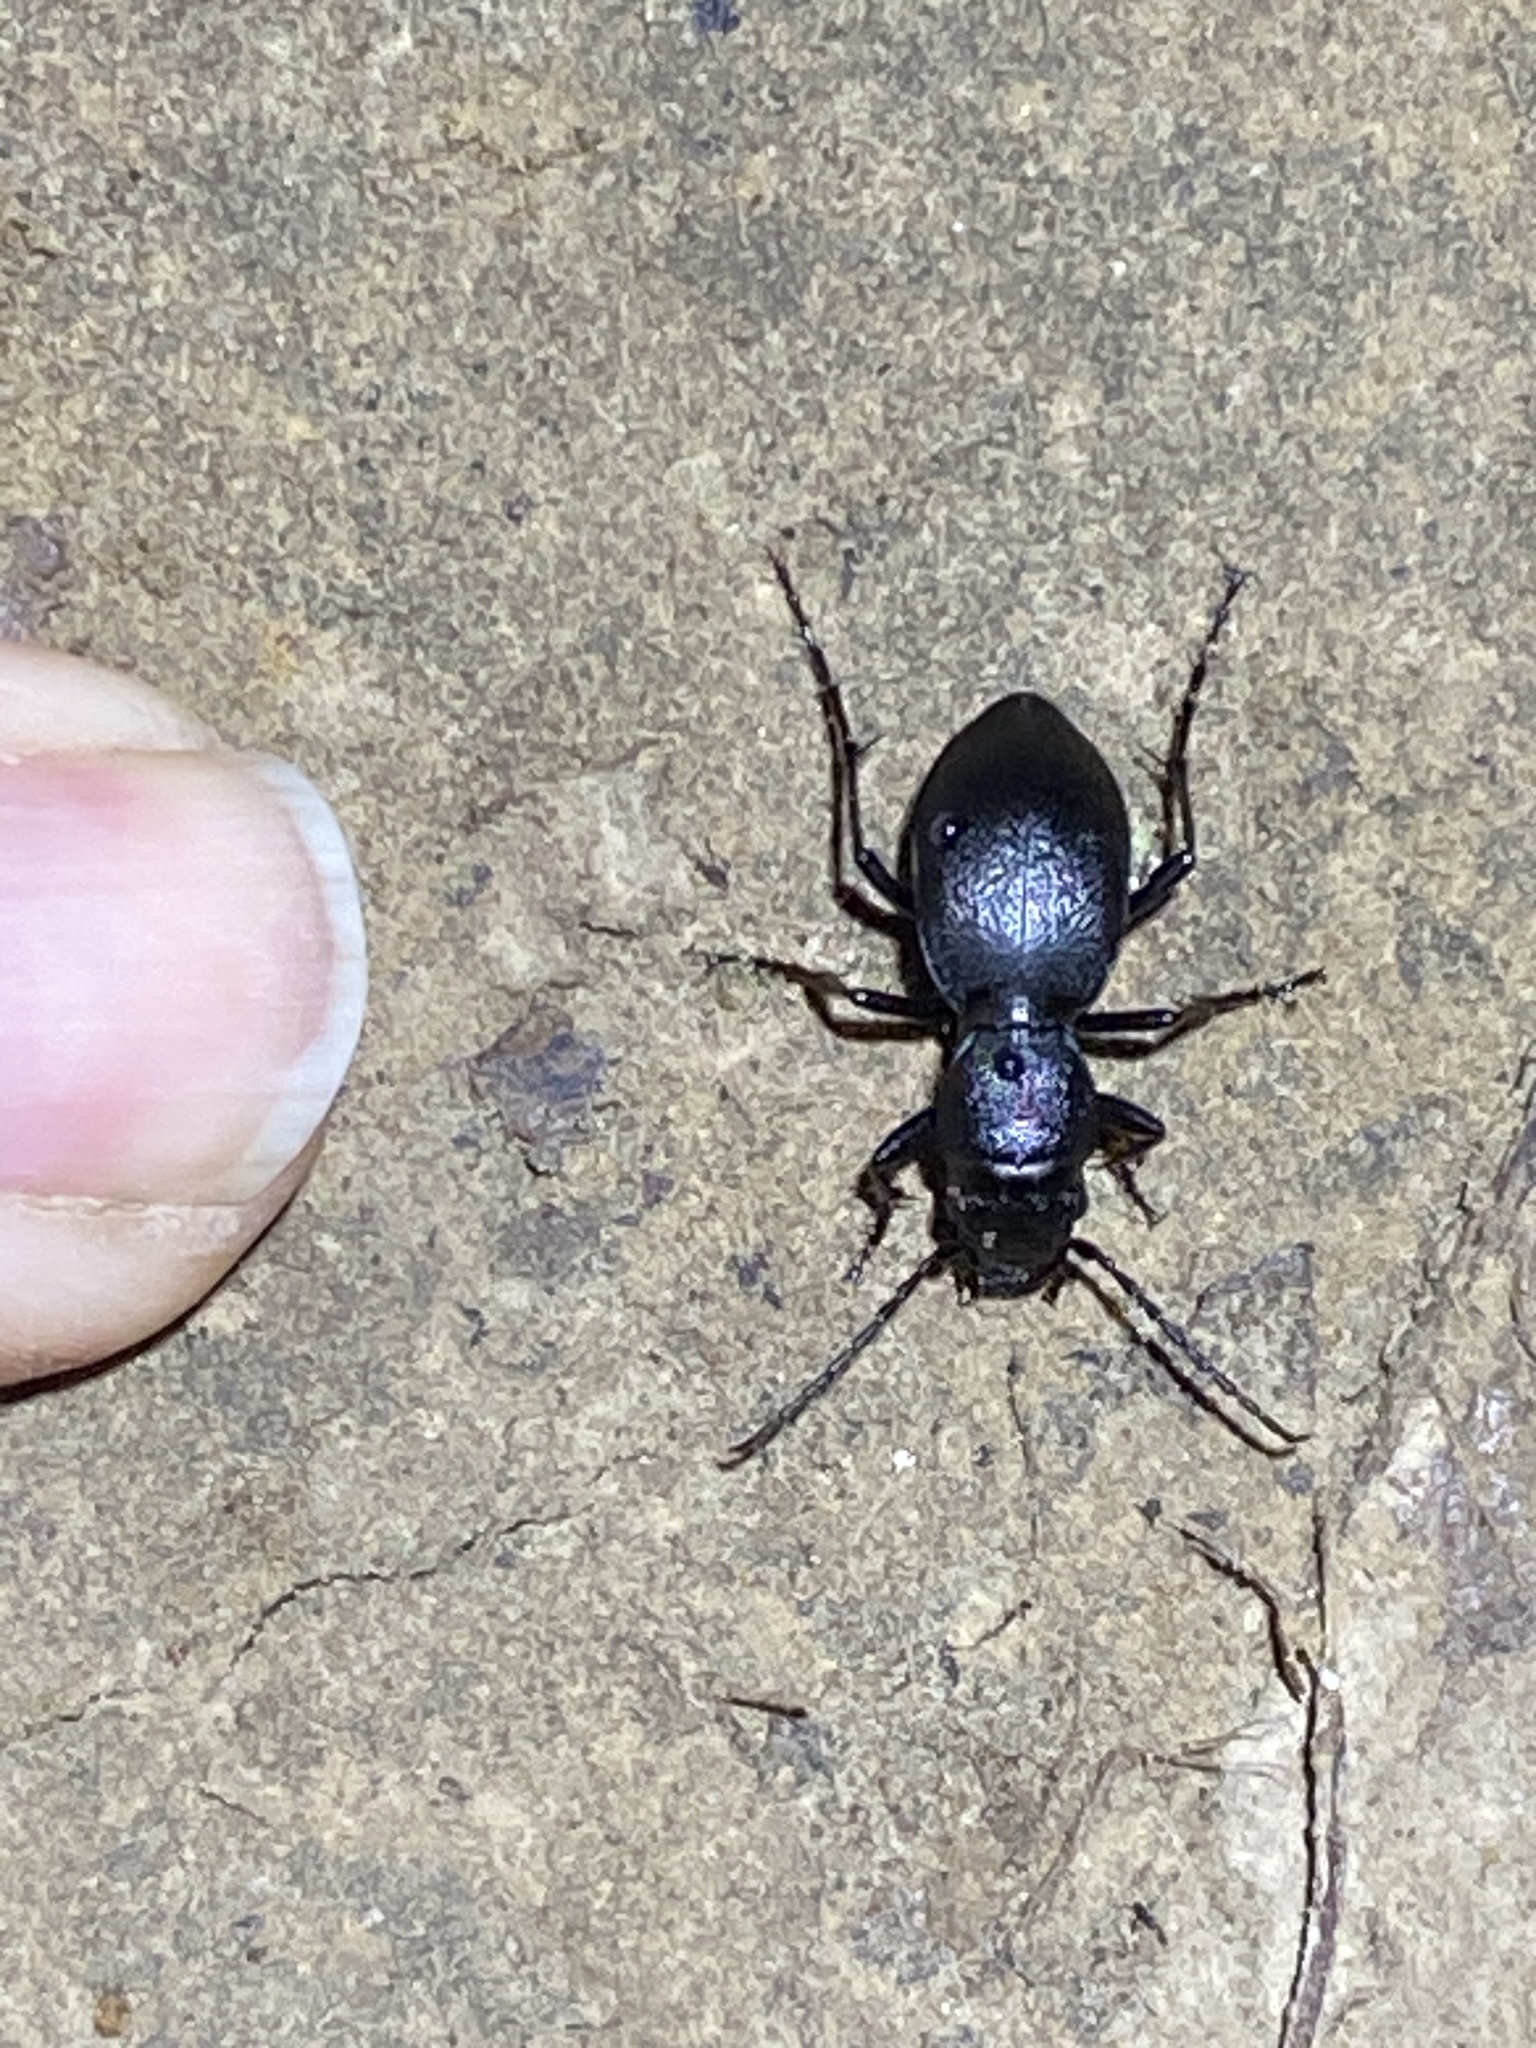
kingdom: Animalia
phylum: Arthropoda
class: Insecta
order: Coleoptera
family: Carabidae
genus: Omus
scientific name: Omus californicus
